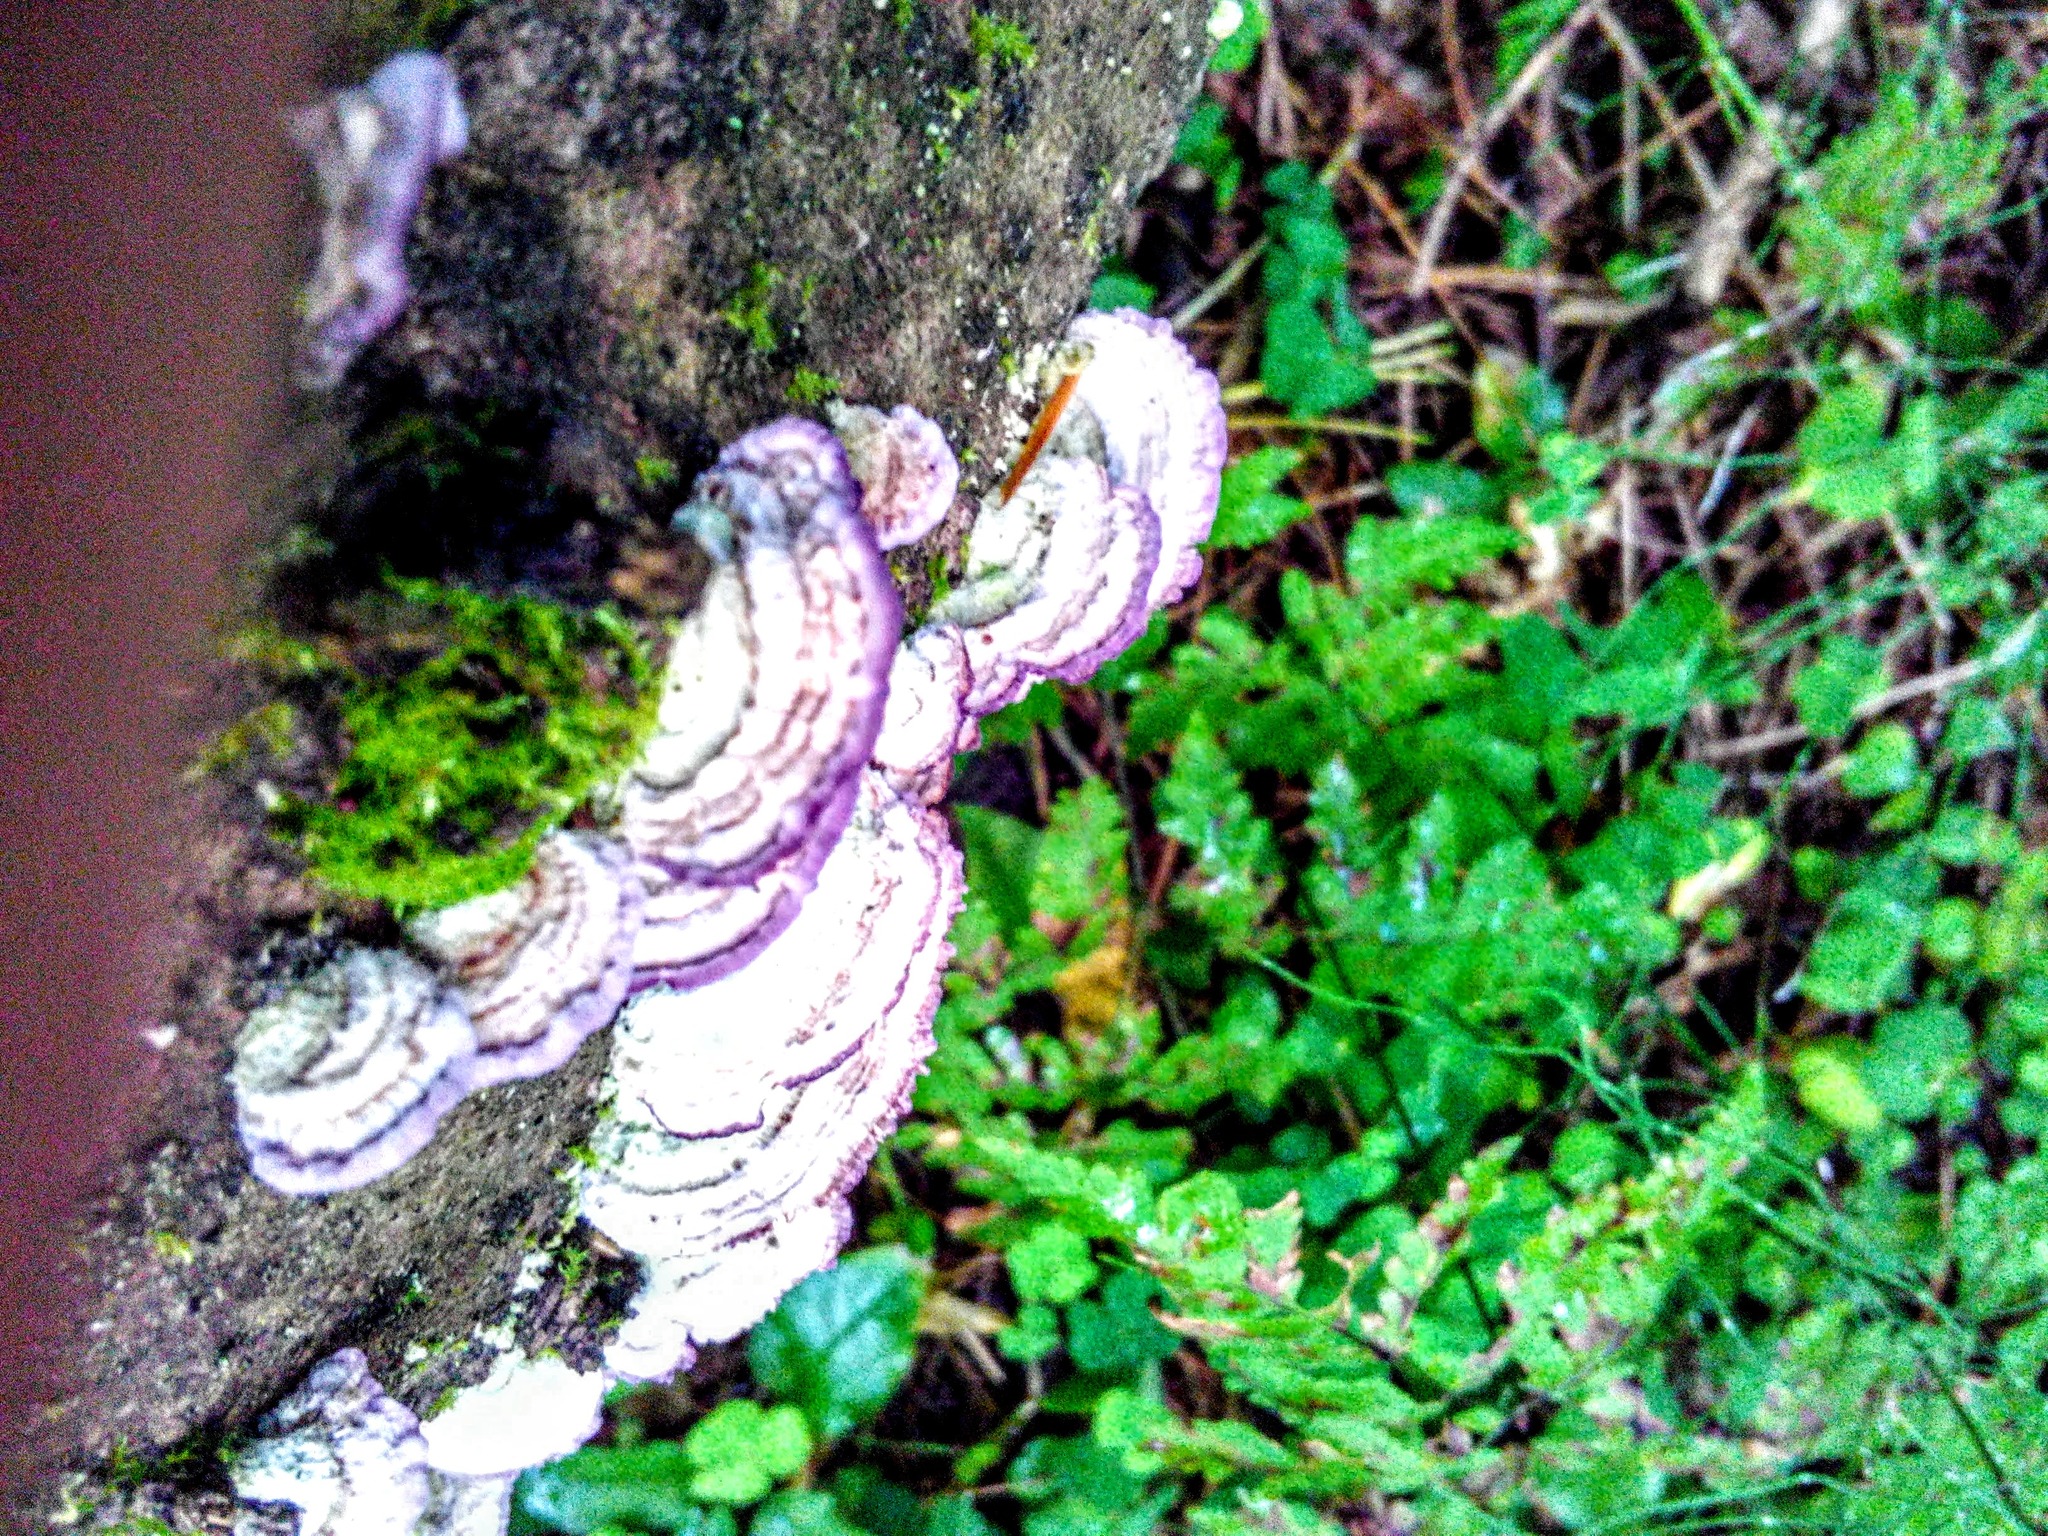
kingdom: Fungi
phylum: Basidiomycota
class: Agaricomycetes
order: Hymenochaetales
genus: Trichaptum
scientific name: Trichaptum fuscoviolaceum
